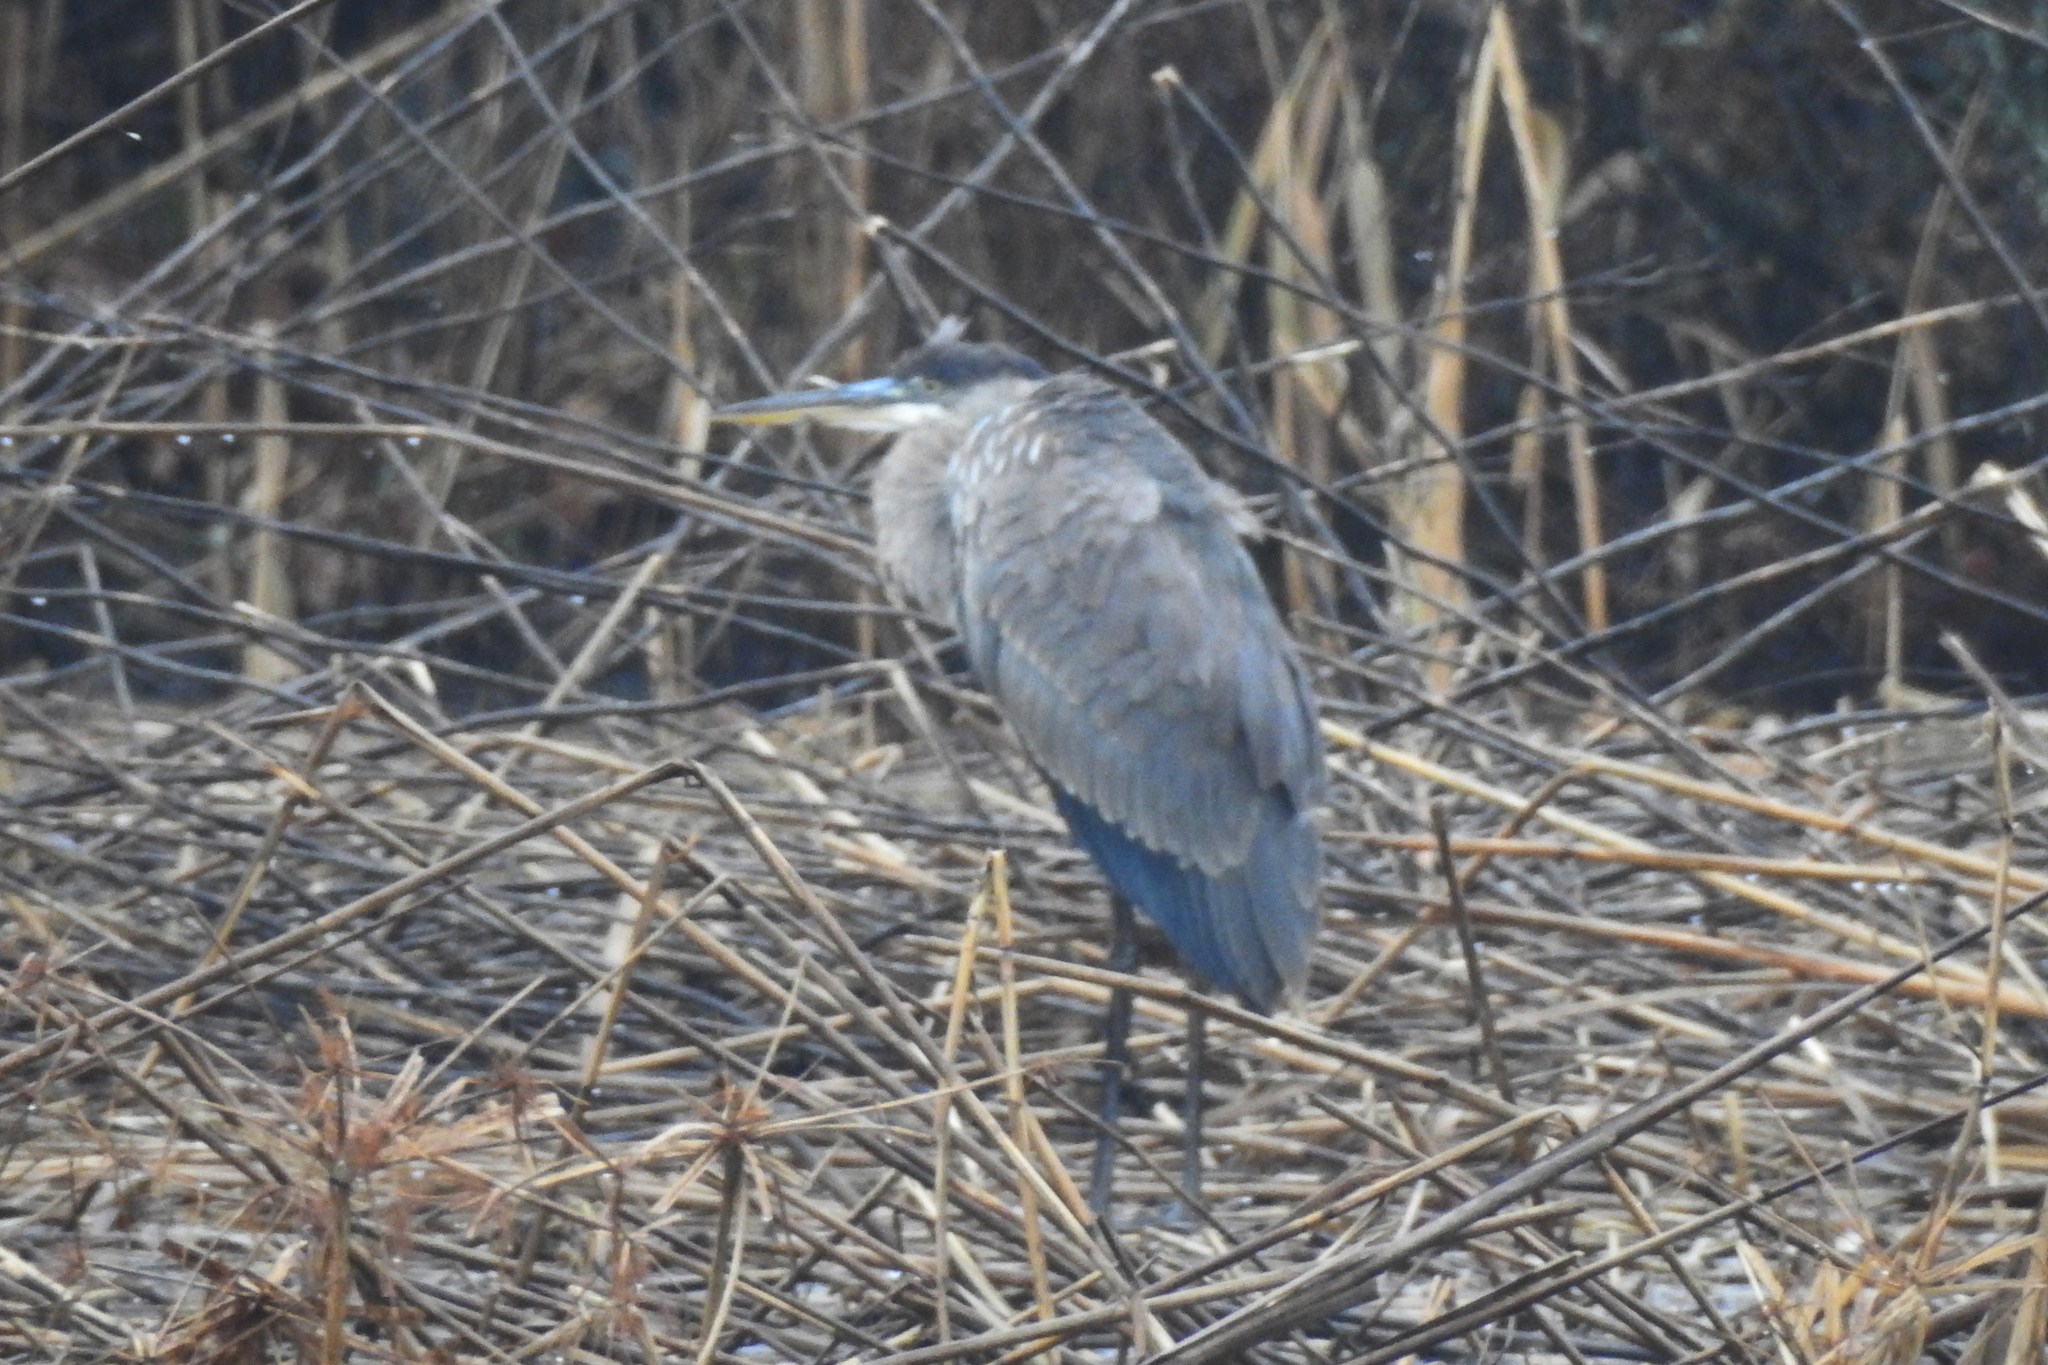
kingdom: Animalia
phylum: Chordata
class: Aves
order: Pelecaniformes
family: Ardeidae
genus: Ardea
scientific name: Ardea herodias
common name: Great blue heron
